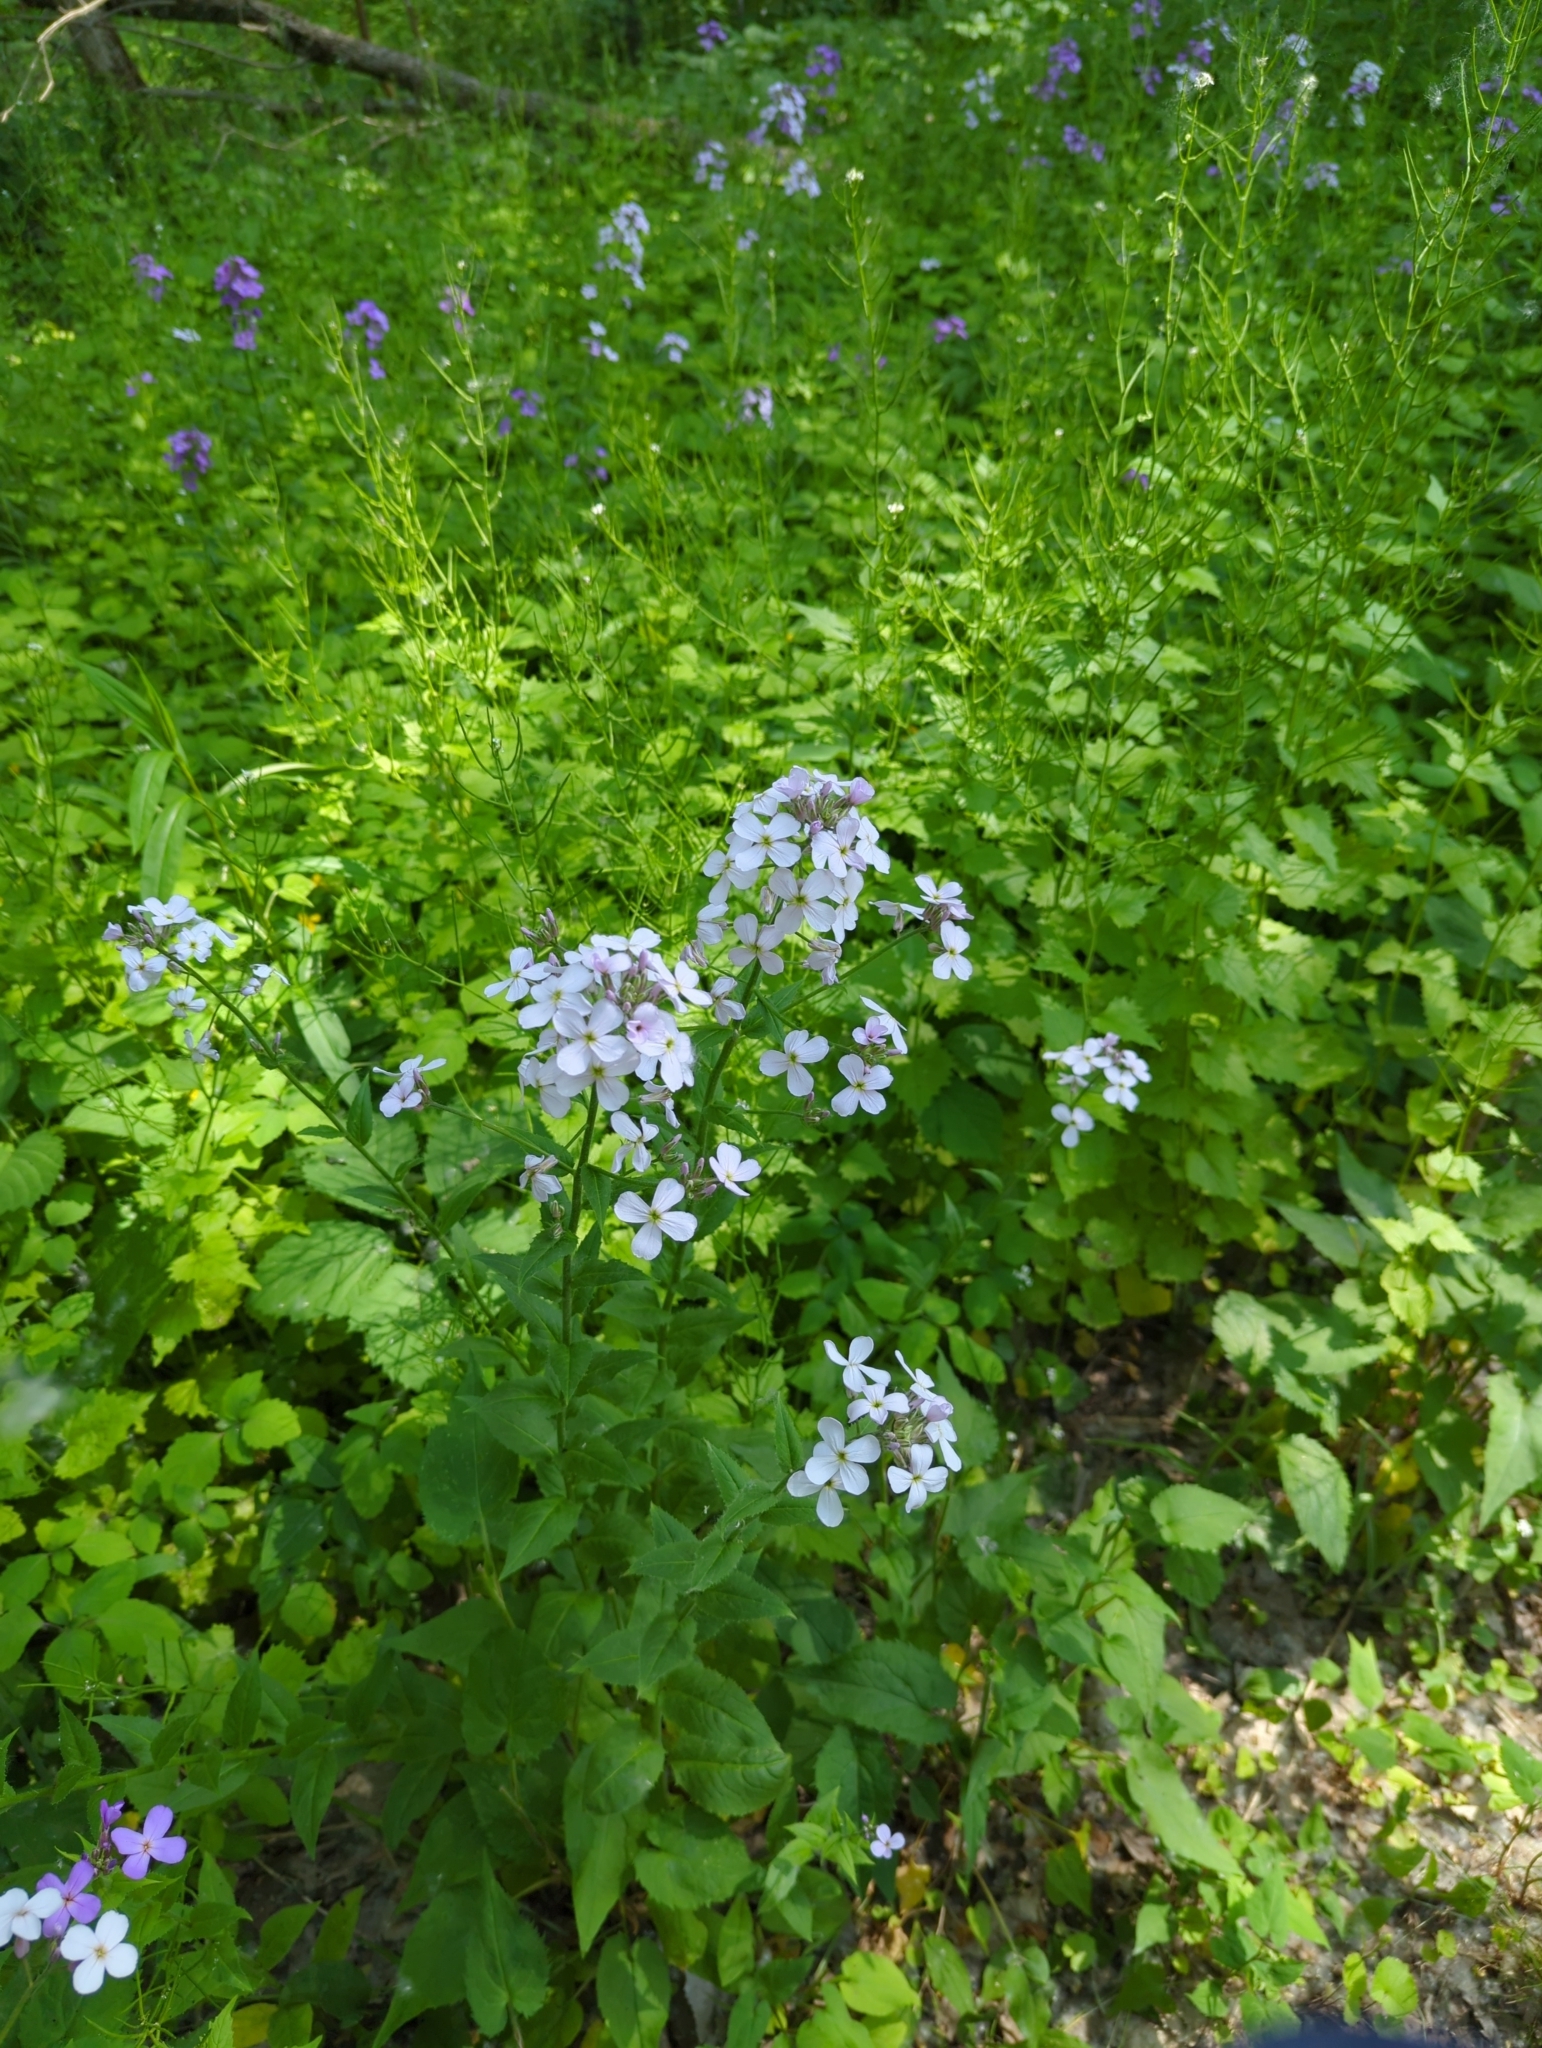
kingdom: Plantae
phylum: Tracheophyta
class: Magnoliopsida
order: Brassicales
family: Brassicaceae
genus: Hesperis
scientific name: Hesperis matronalis
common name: Dame's-violet
